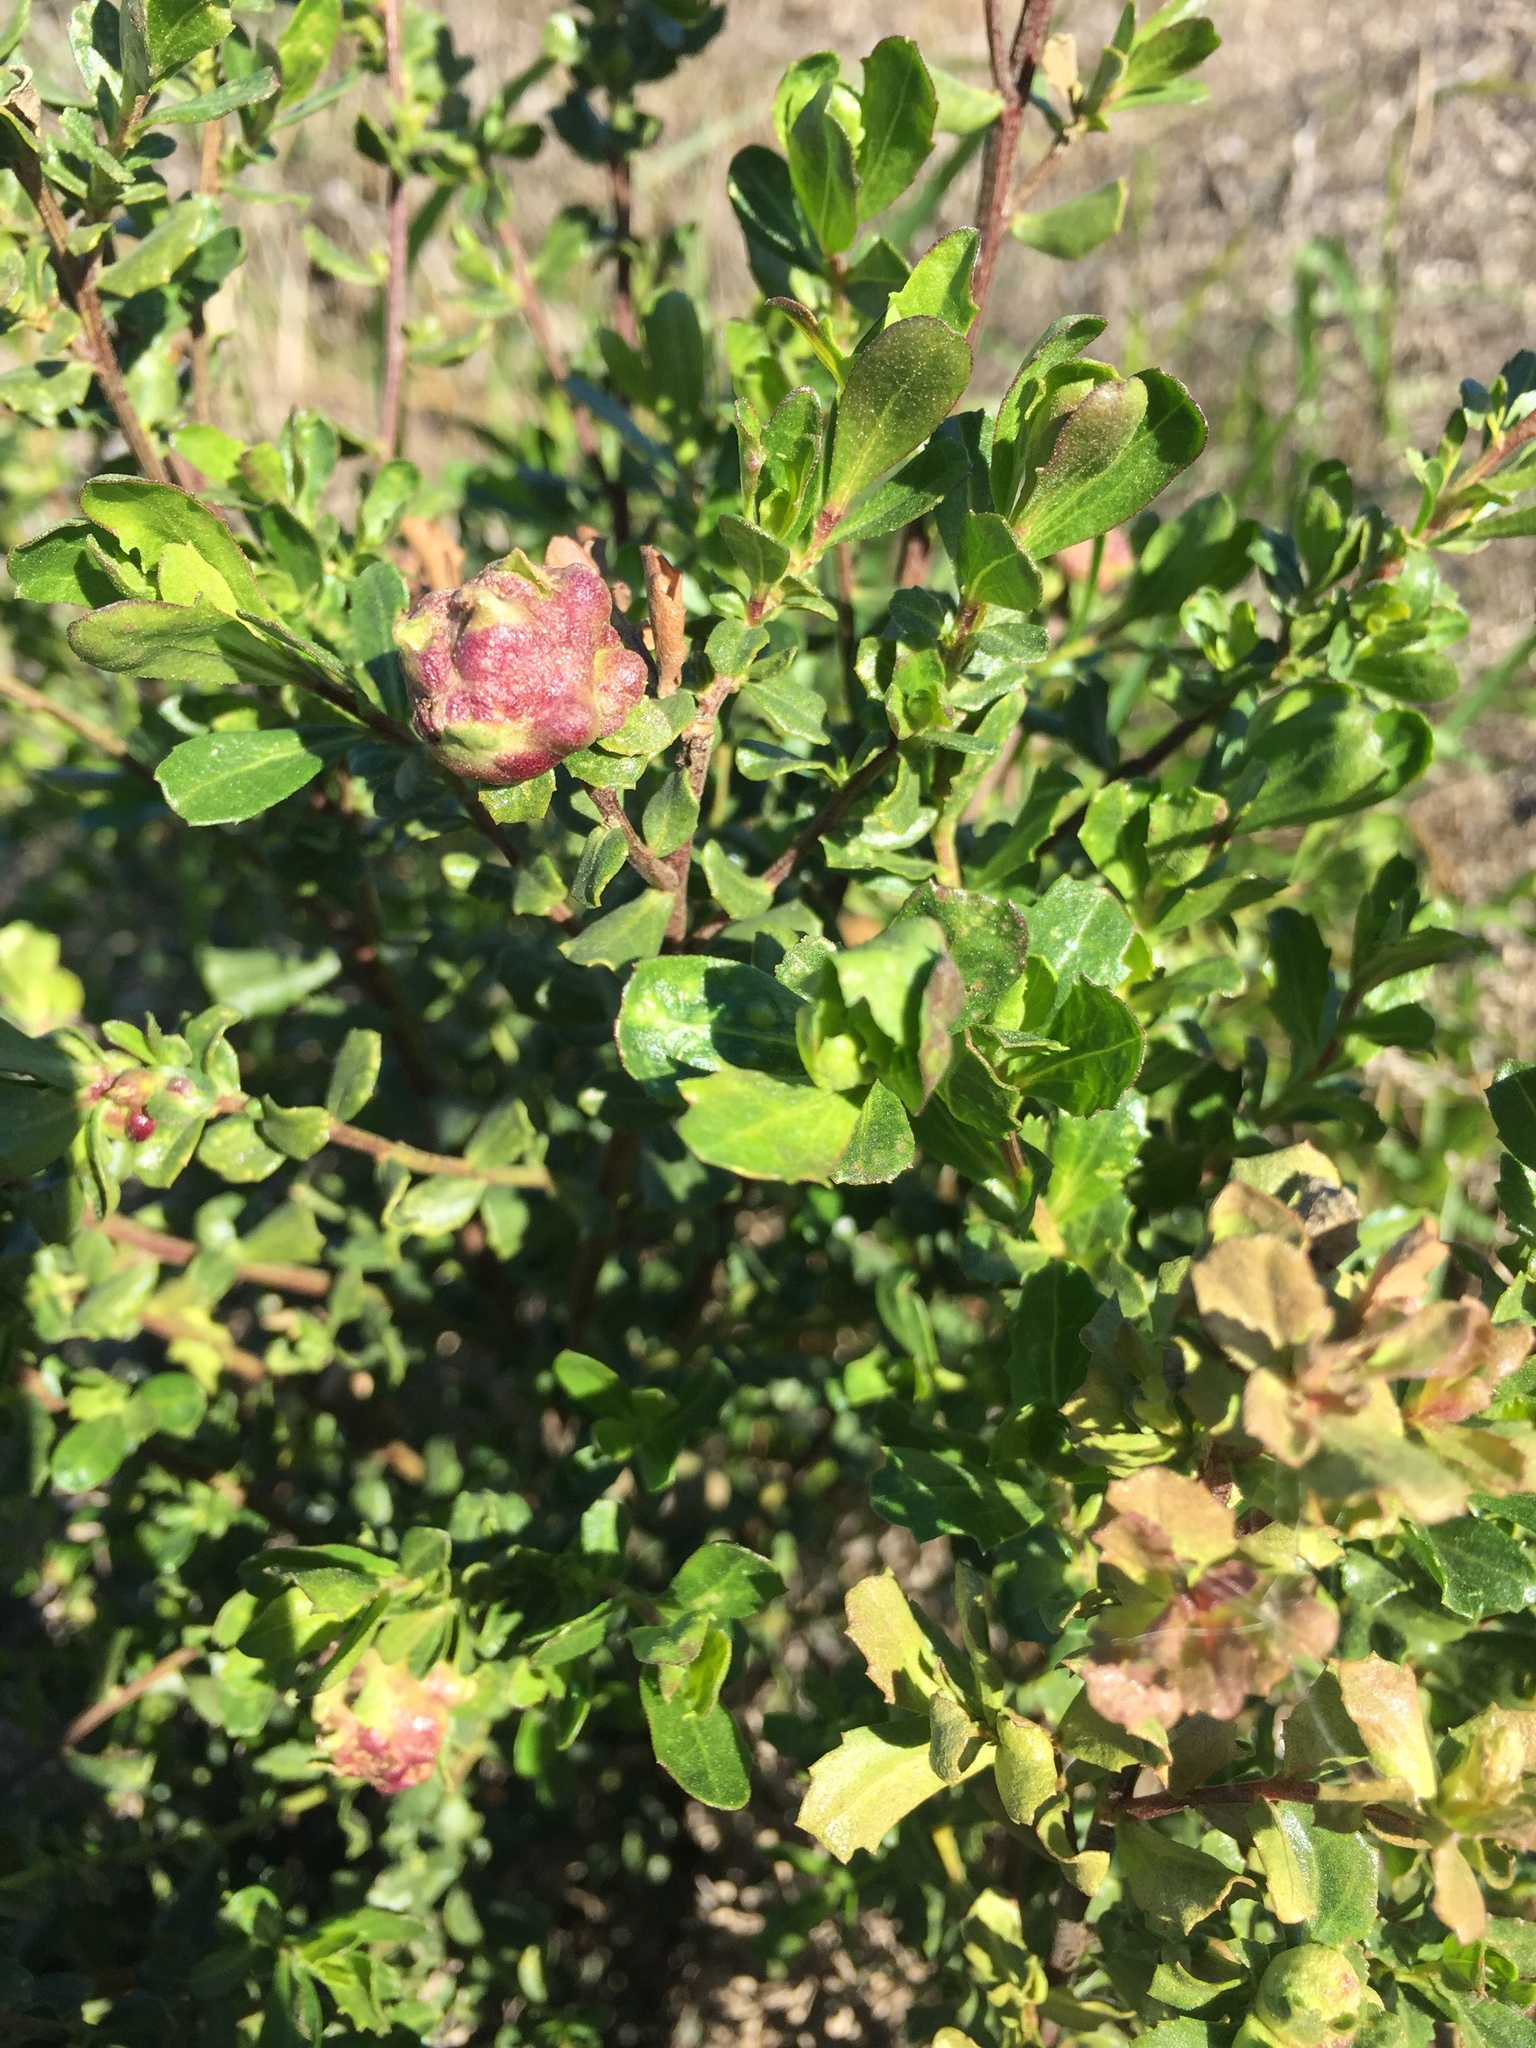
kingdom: Animalia
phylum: Arthropoda
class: Insecta
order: Diptera
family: Cecidomyiidae
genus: Rhopalomyia
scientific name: Rhopalomyia californica
